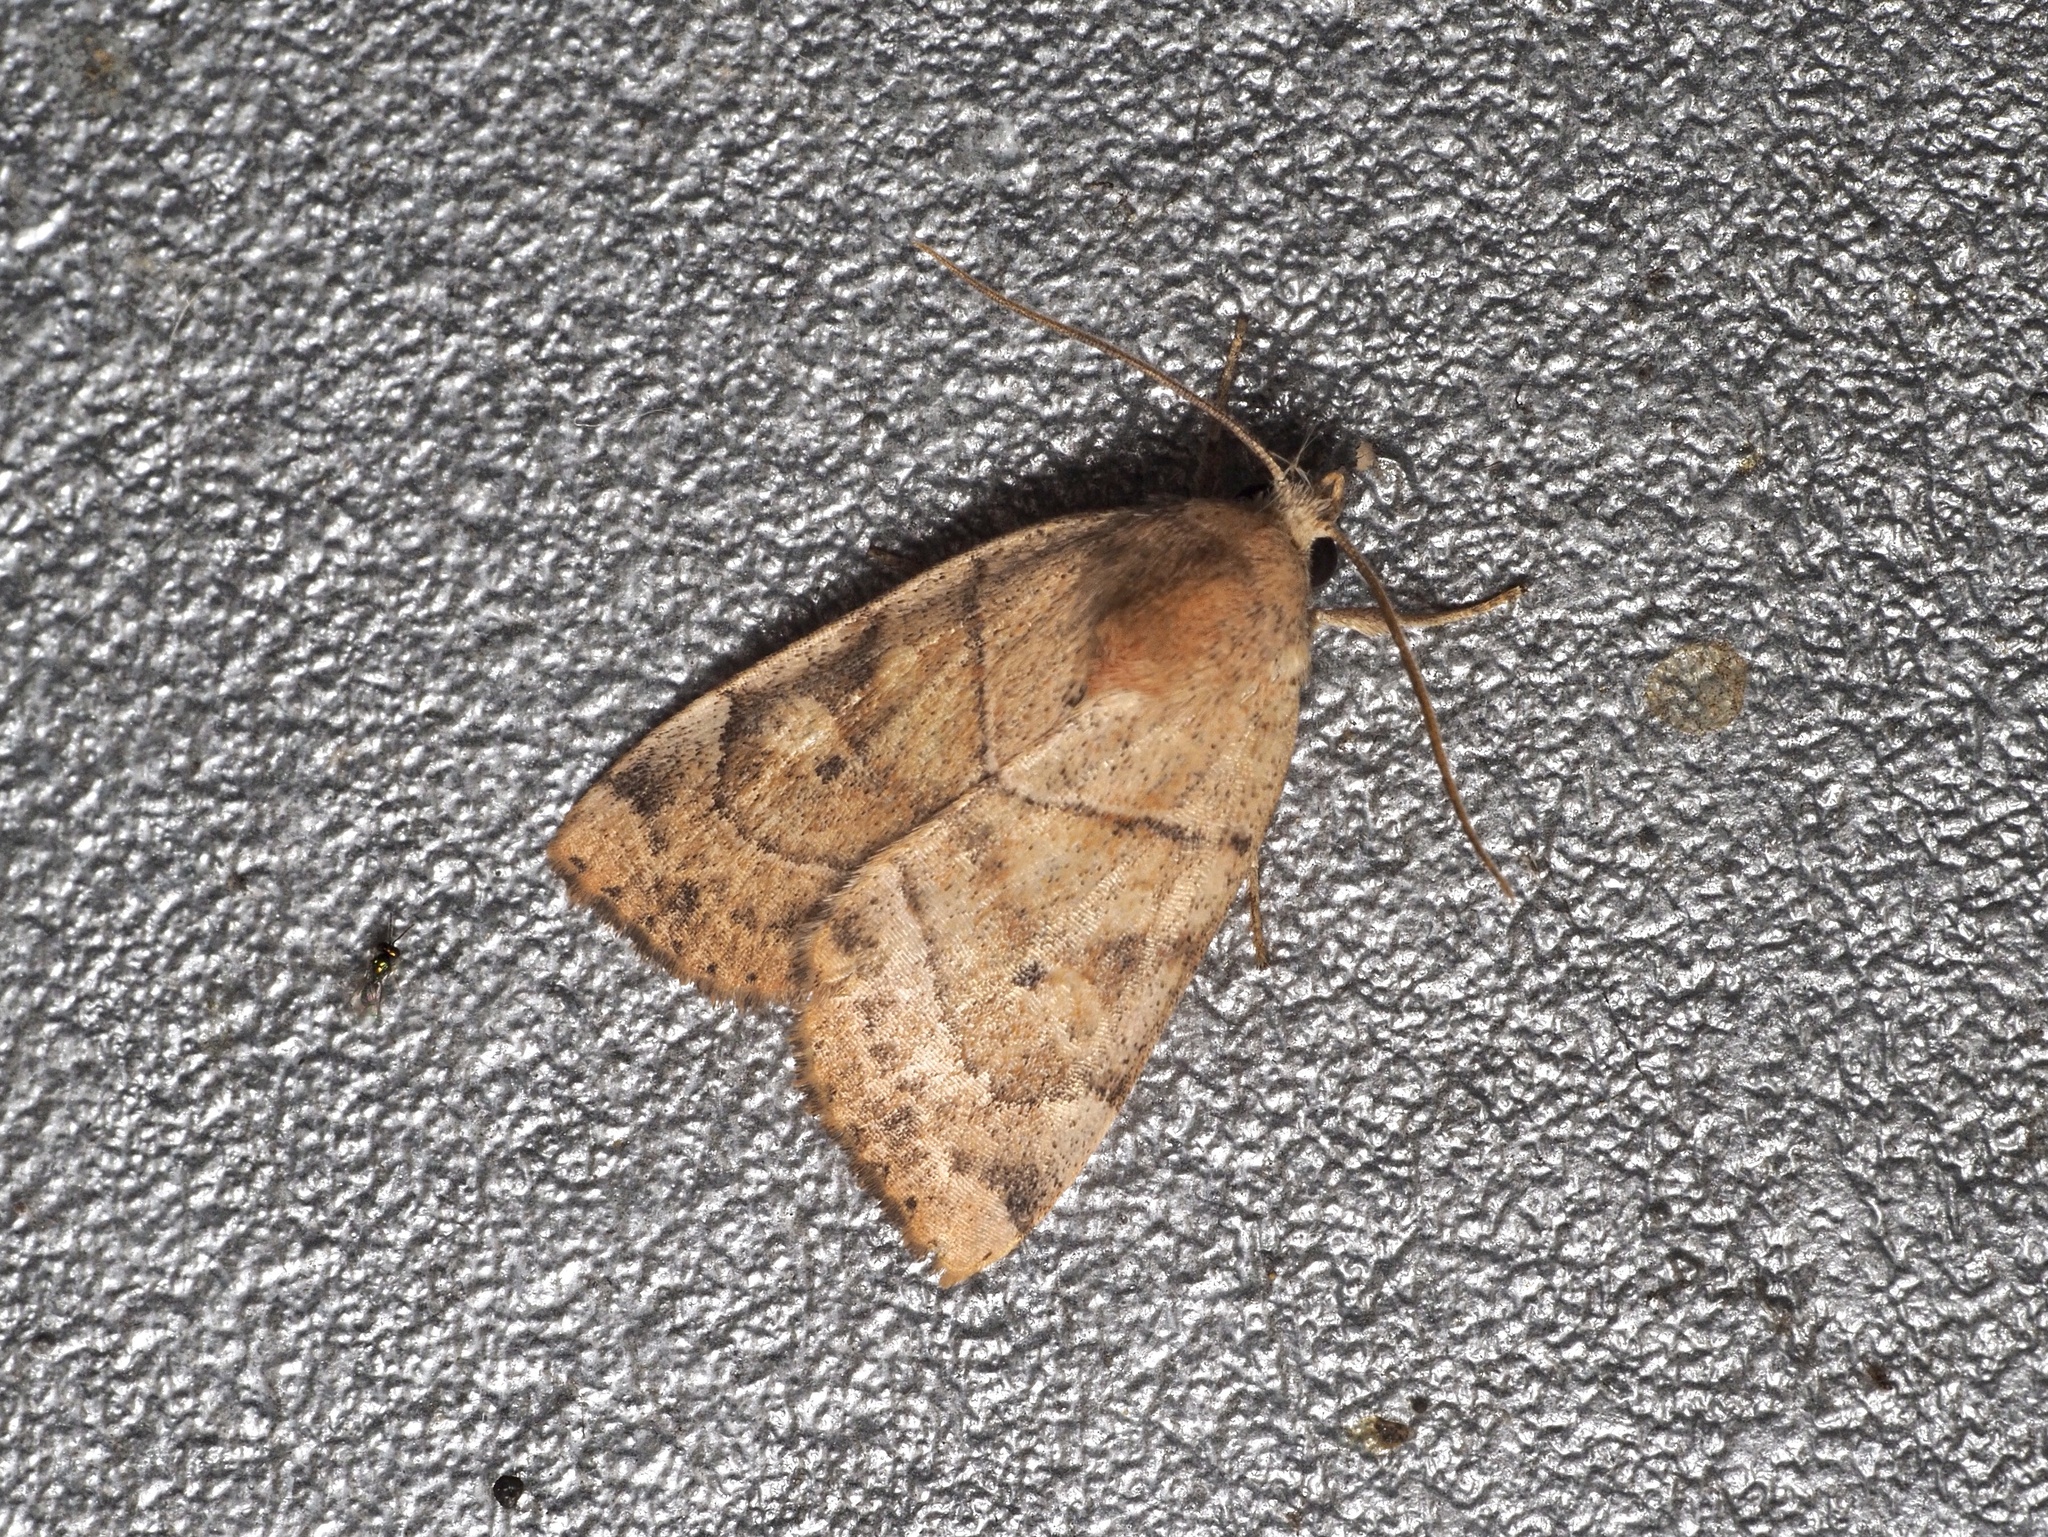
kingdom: Animalia
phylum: Arthropoda
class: Insecta
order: Lepidoptera
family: Noctuidae
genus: Cosmia
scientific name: Cosmia trapezina
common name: Dun-bar
